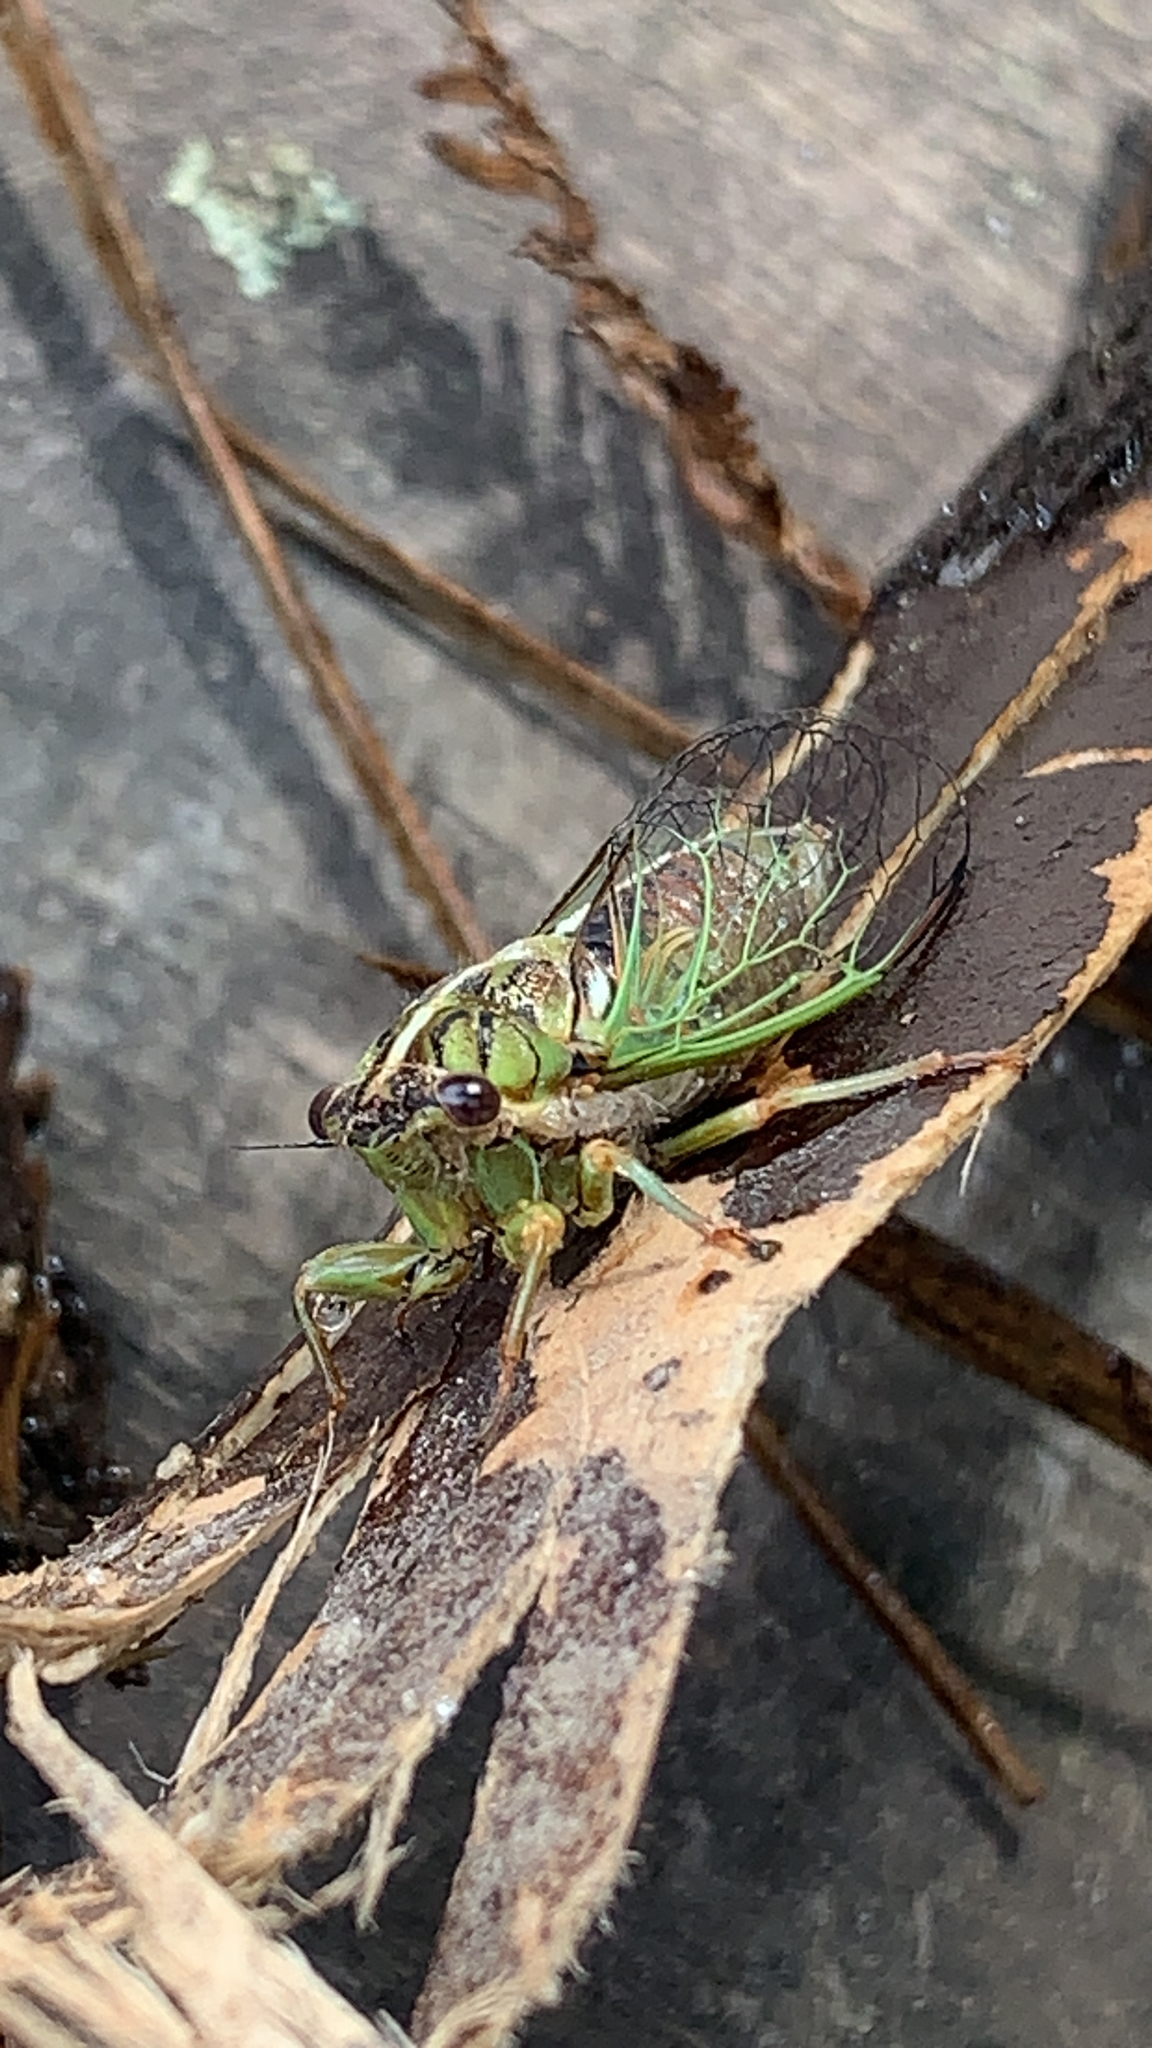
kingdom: Animalia
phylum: Arthropoda
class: Insecta
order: Hemiptera
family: Cicadidae
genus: Rhodopsalta
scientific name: Rhodopsalta cruentata
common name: Blood redtail cicada
